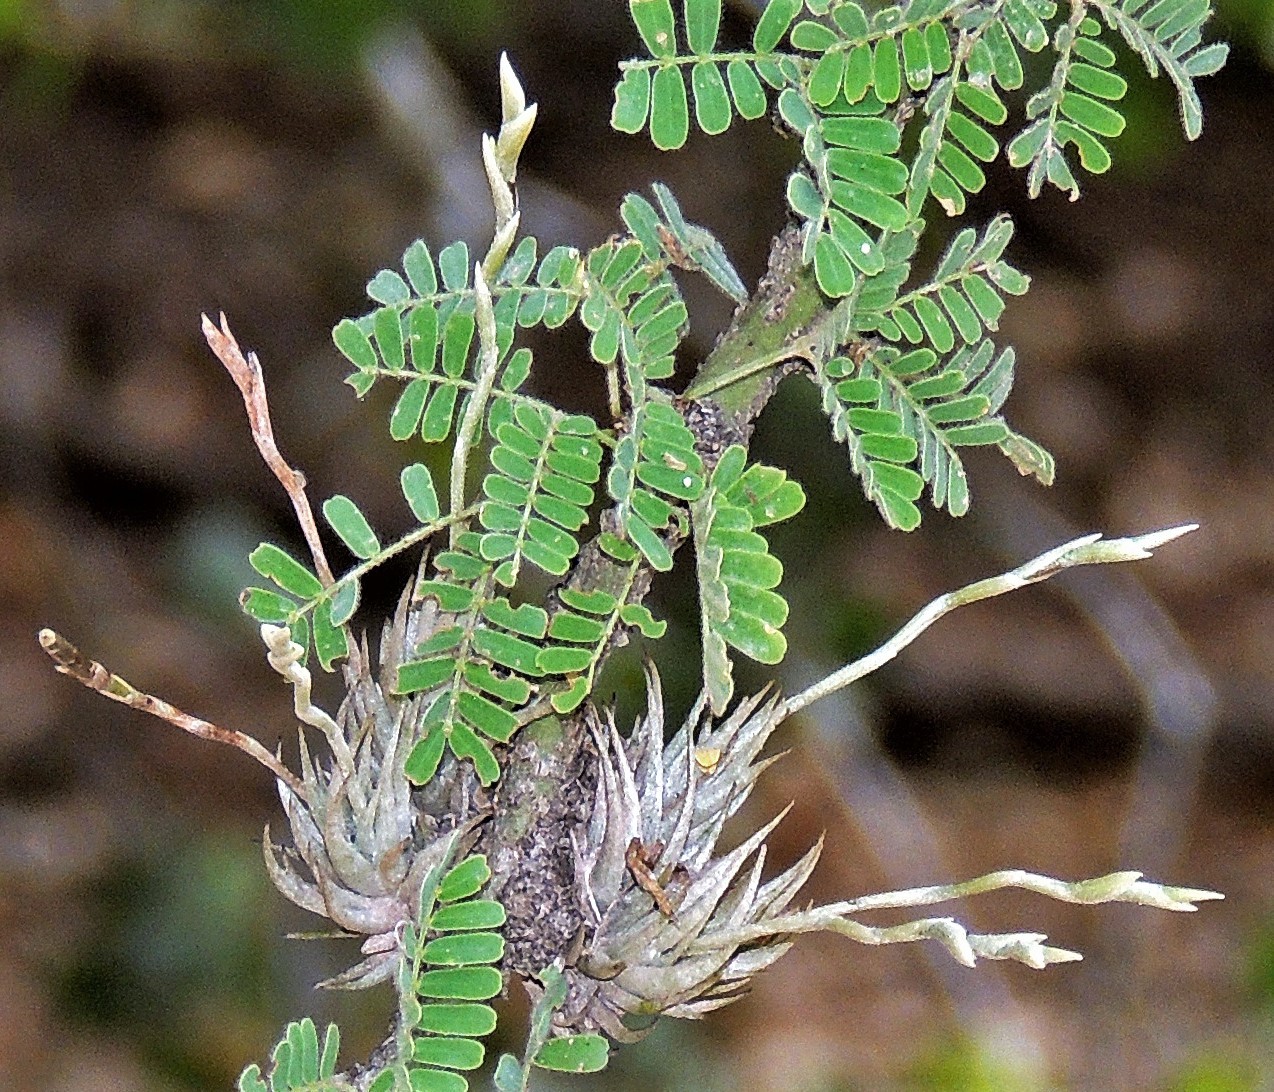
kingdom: Plantae
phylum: Tracheophyta
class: Liliopsida
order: Poales
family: Bromeliaceae
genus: Tillandsia
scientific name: Tillandsia loliacea
